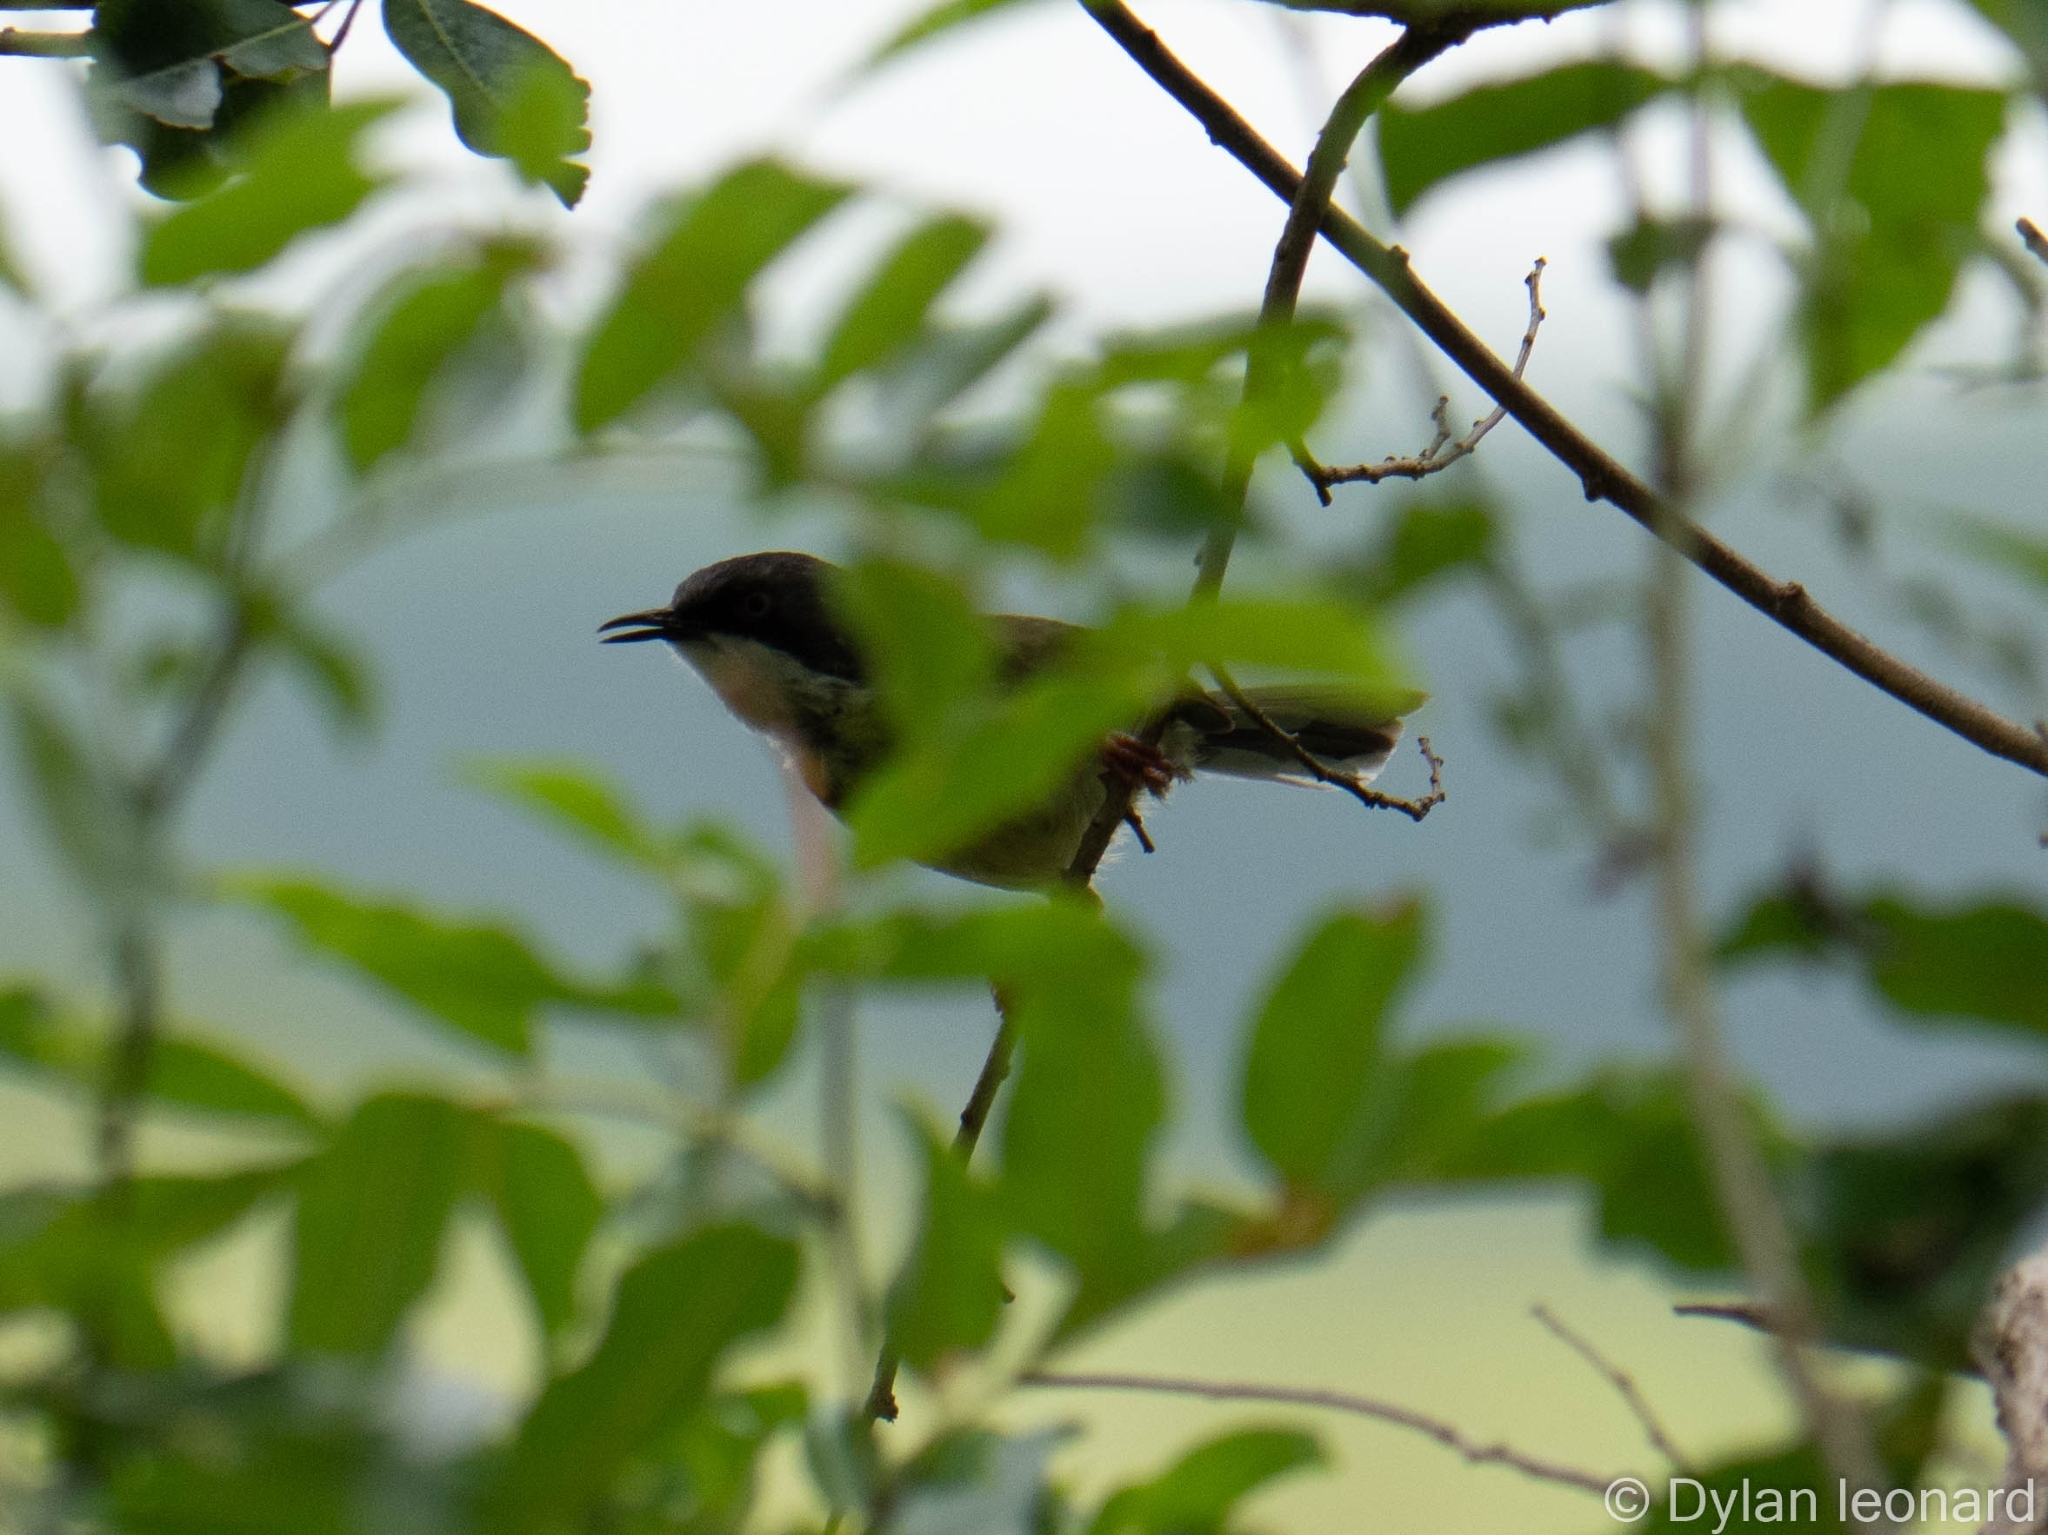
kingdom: Animalia
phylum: Chordata
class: Aves
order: Passeriformes
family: Cisticolidae
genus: Apalis
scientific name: Apalis thoracica
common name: Bar-throated apalis
